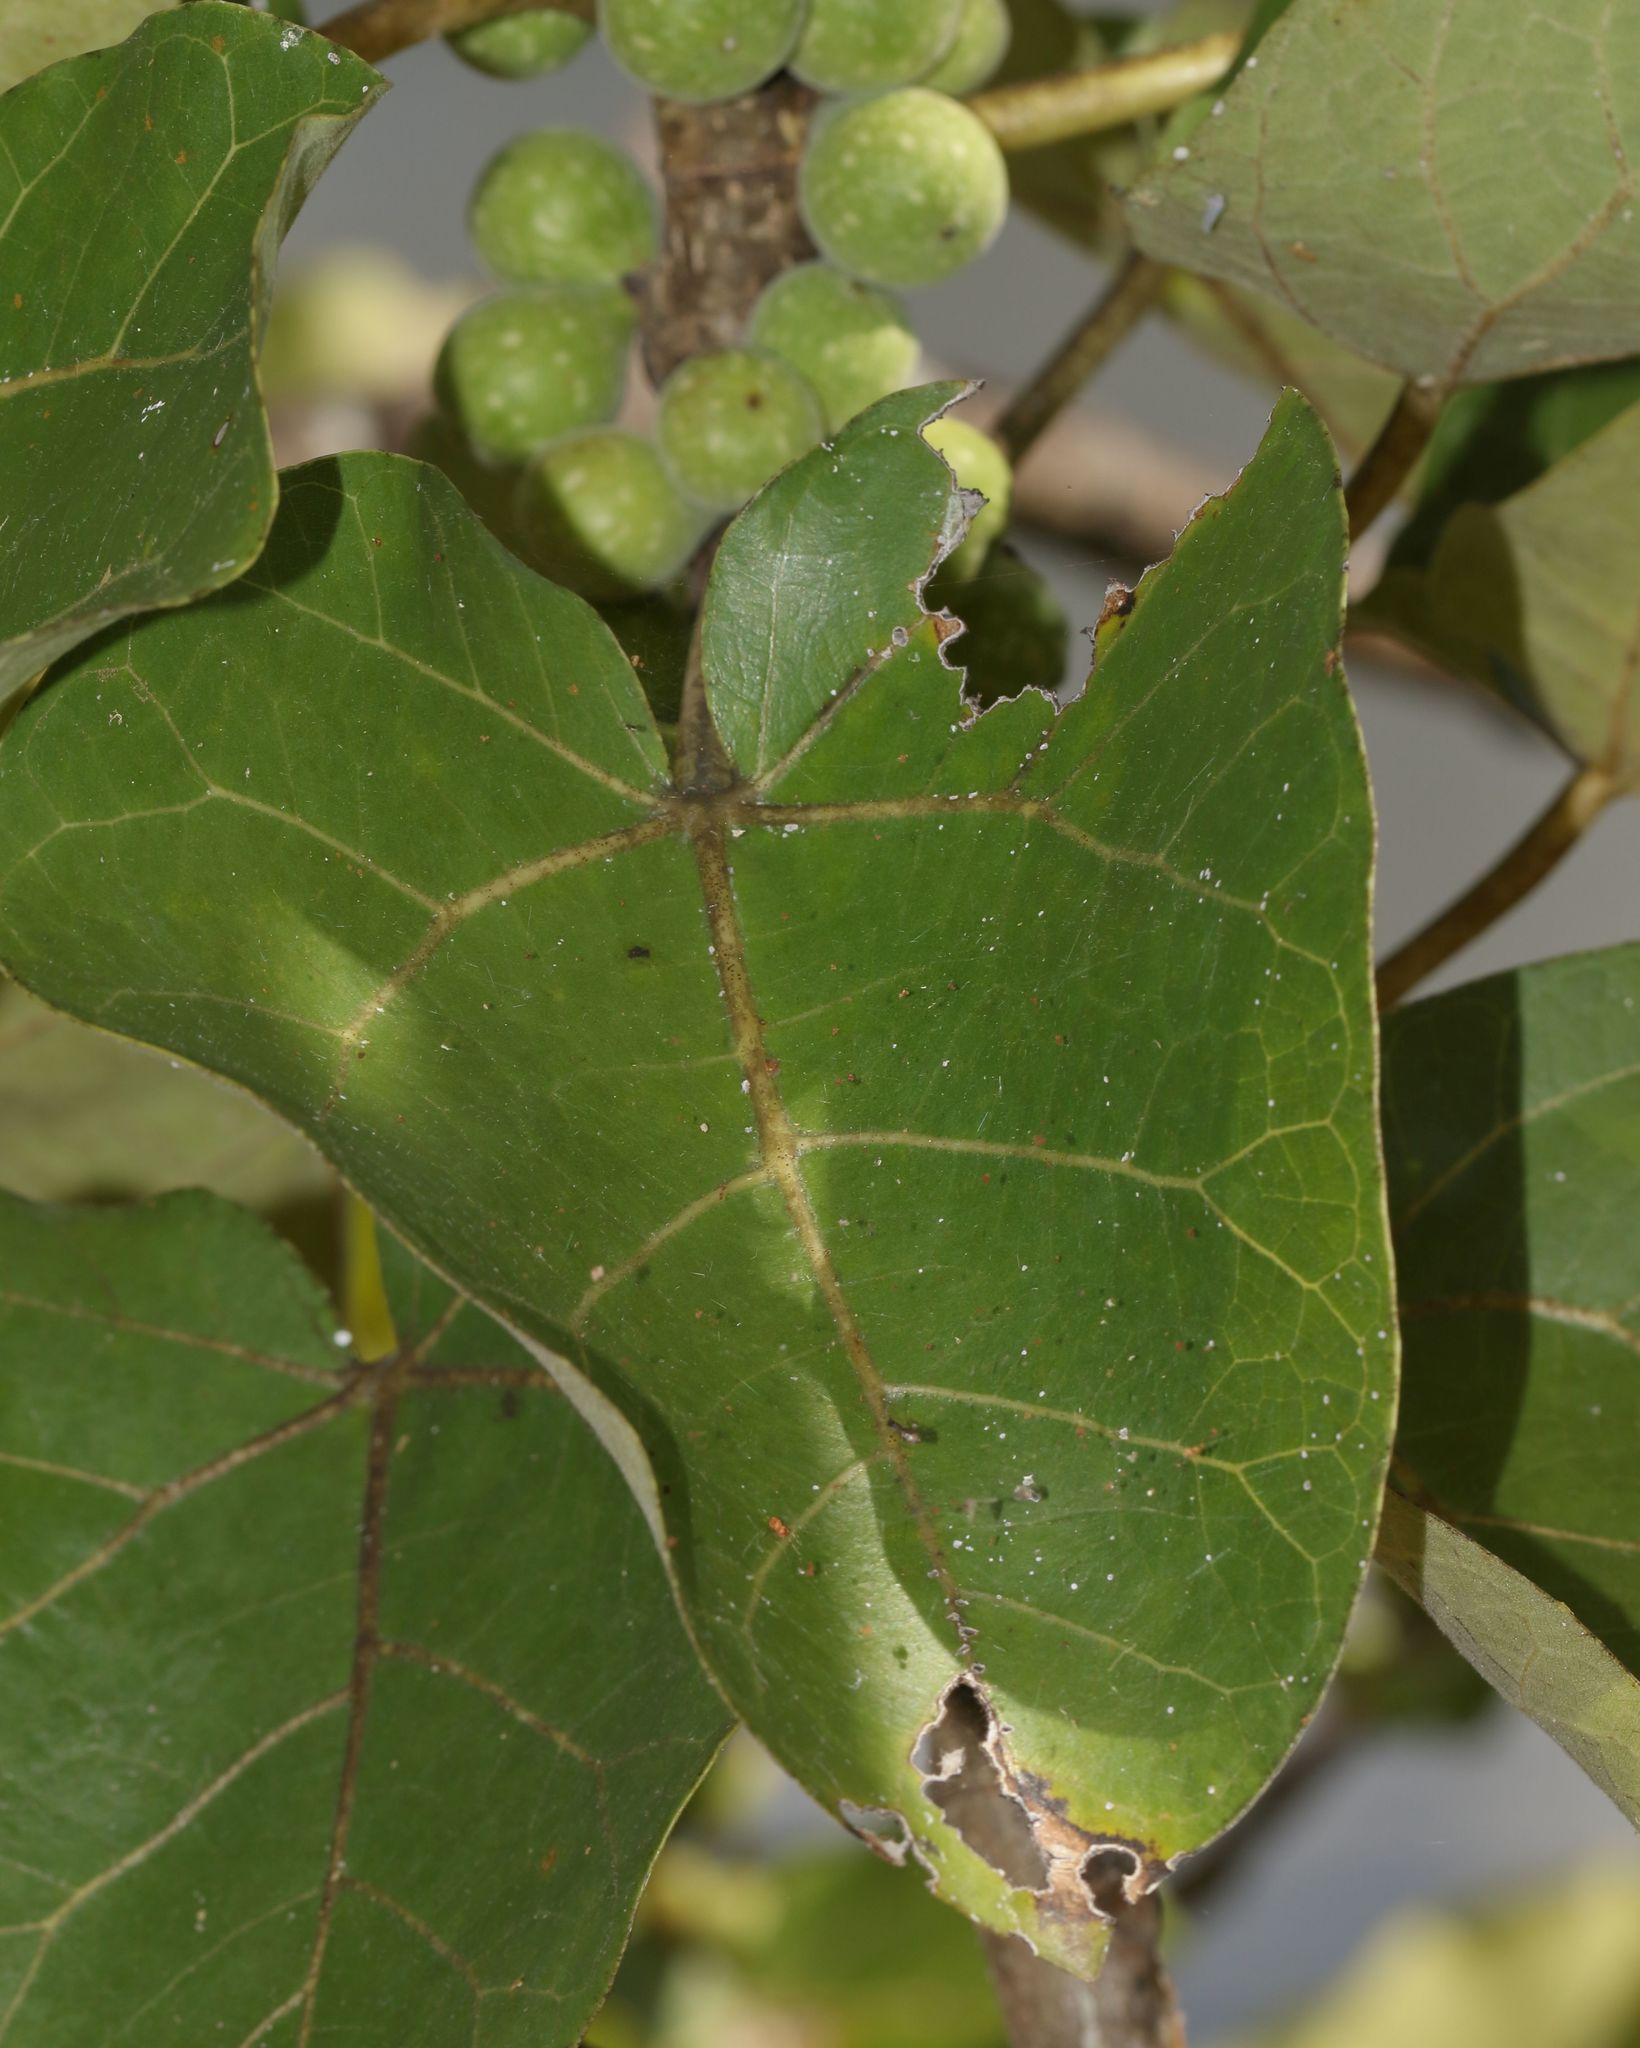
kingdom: Plantae
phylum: Tracheophyta
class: Magnoliopsida
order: Rosales
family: Moraceae
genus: Ficus
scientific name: Ficus abutilifolia
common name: Large-leaved rock fig
